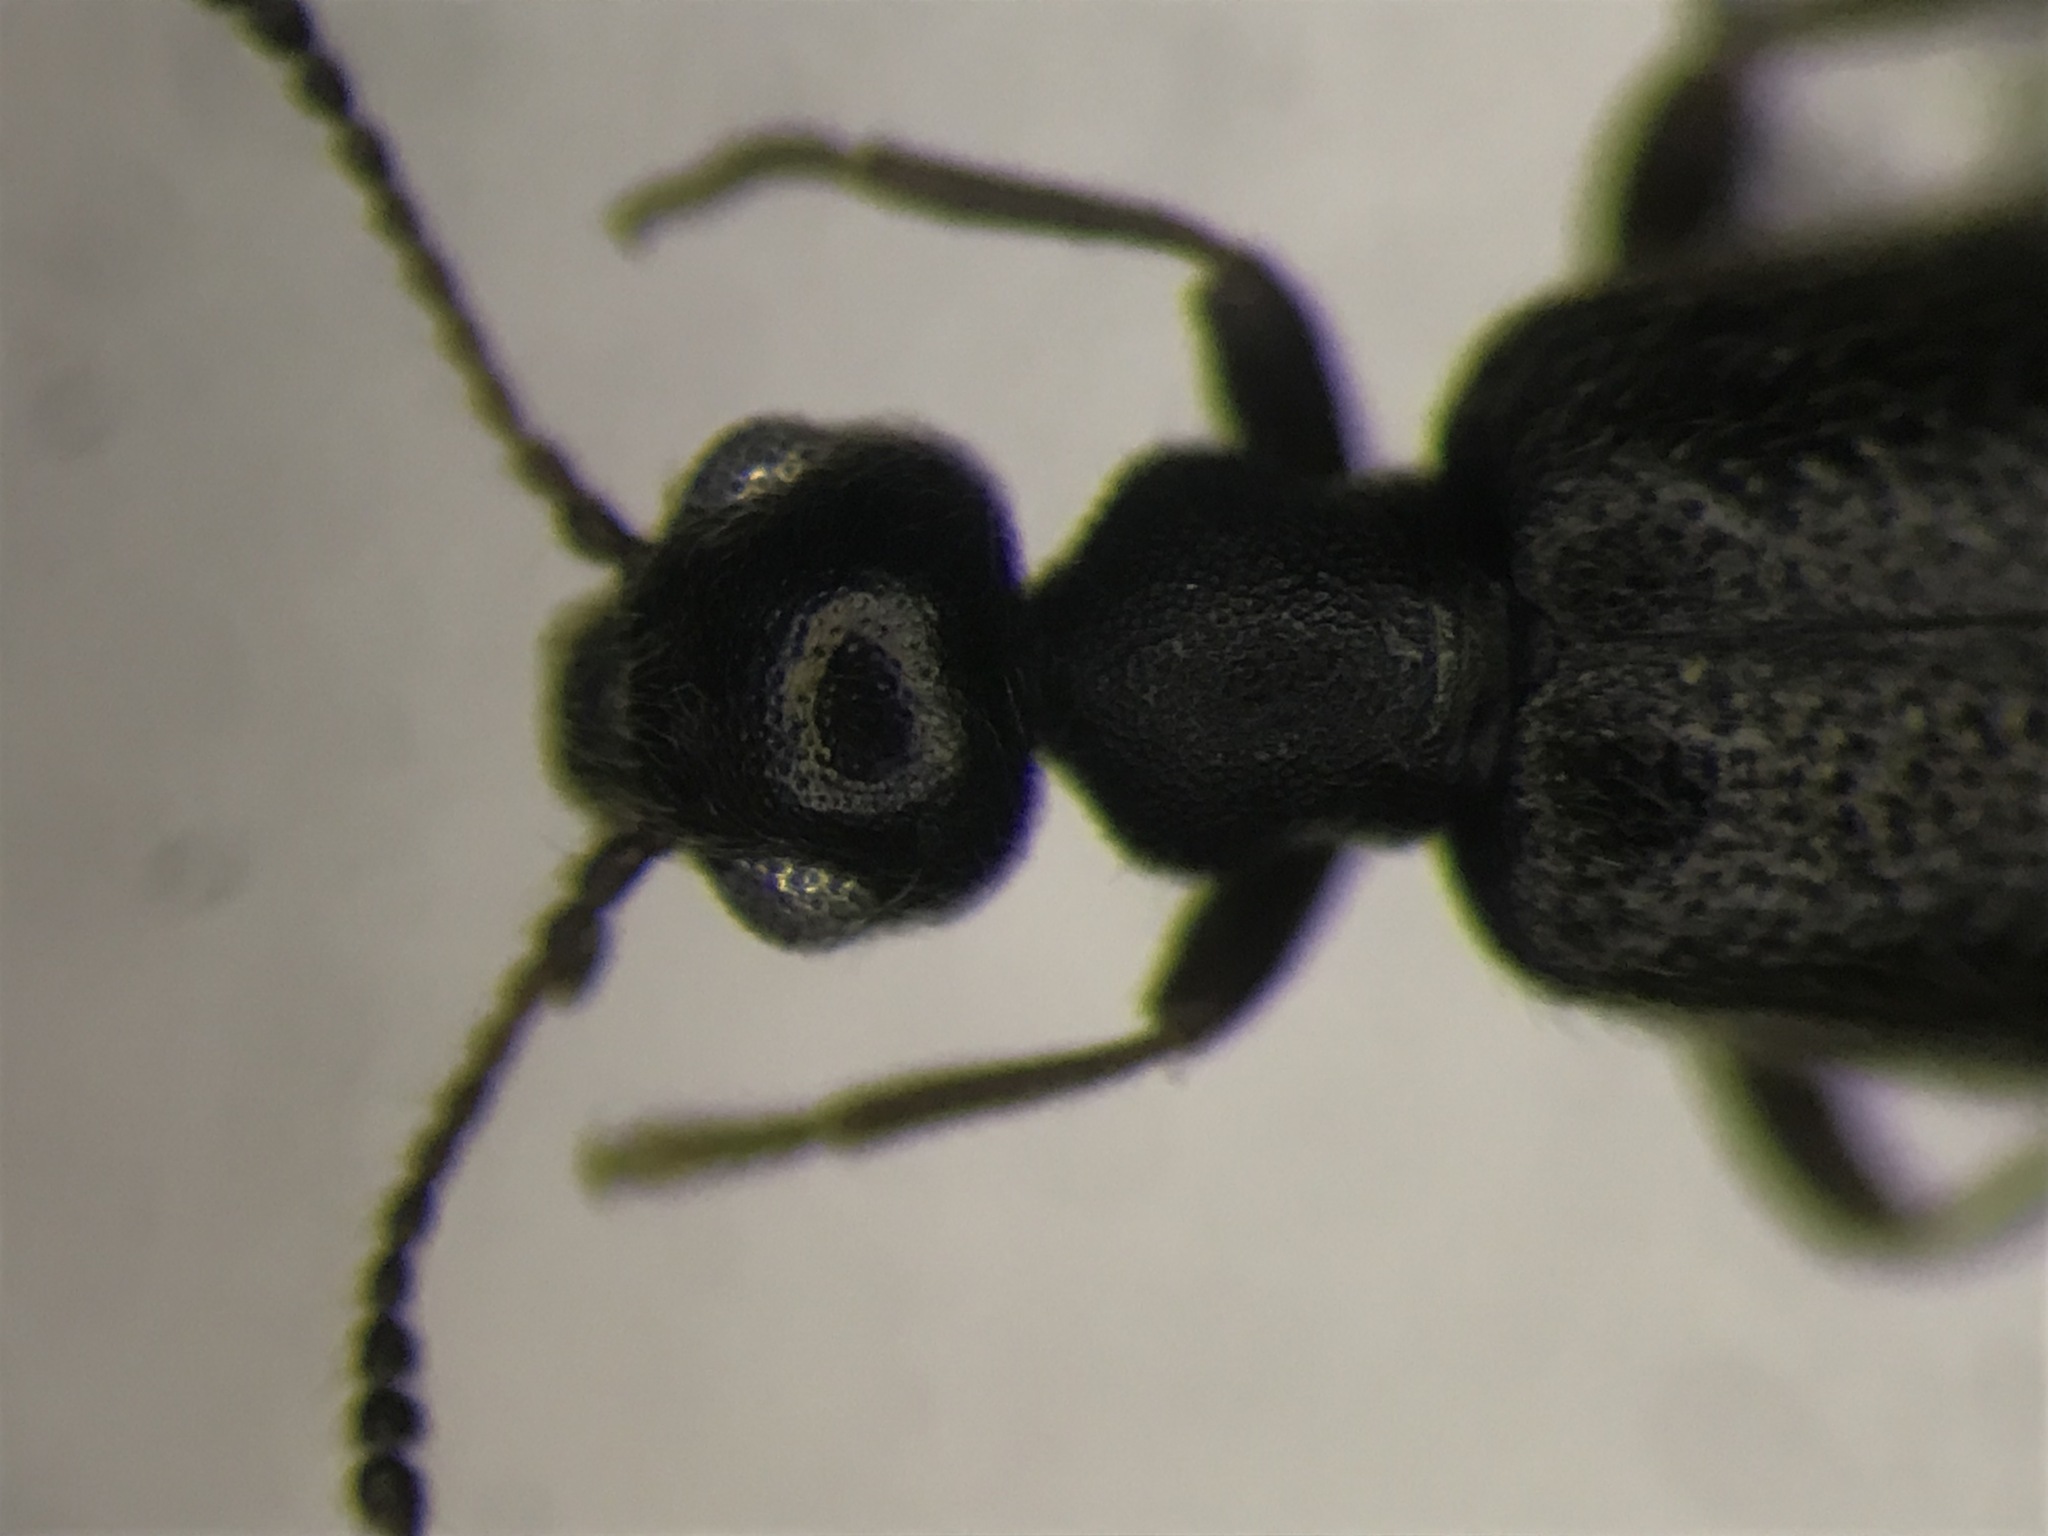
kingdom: Animalia
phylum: Arthropoda
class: Insecta
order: Coleoptera
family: Anthicidae
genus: Sapintus
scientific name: Sapintus fulvipes
